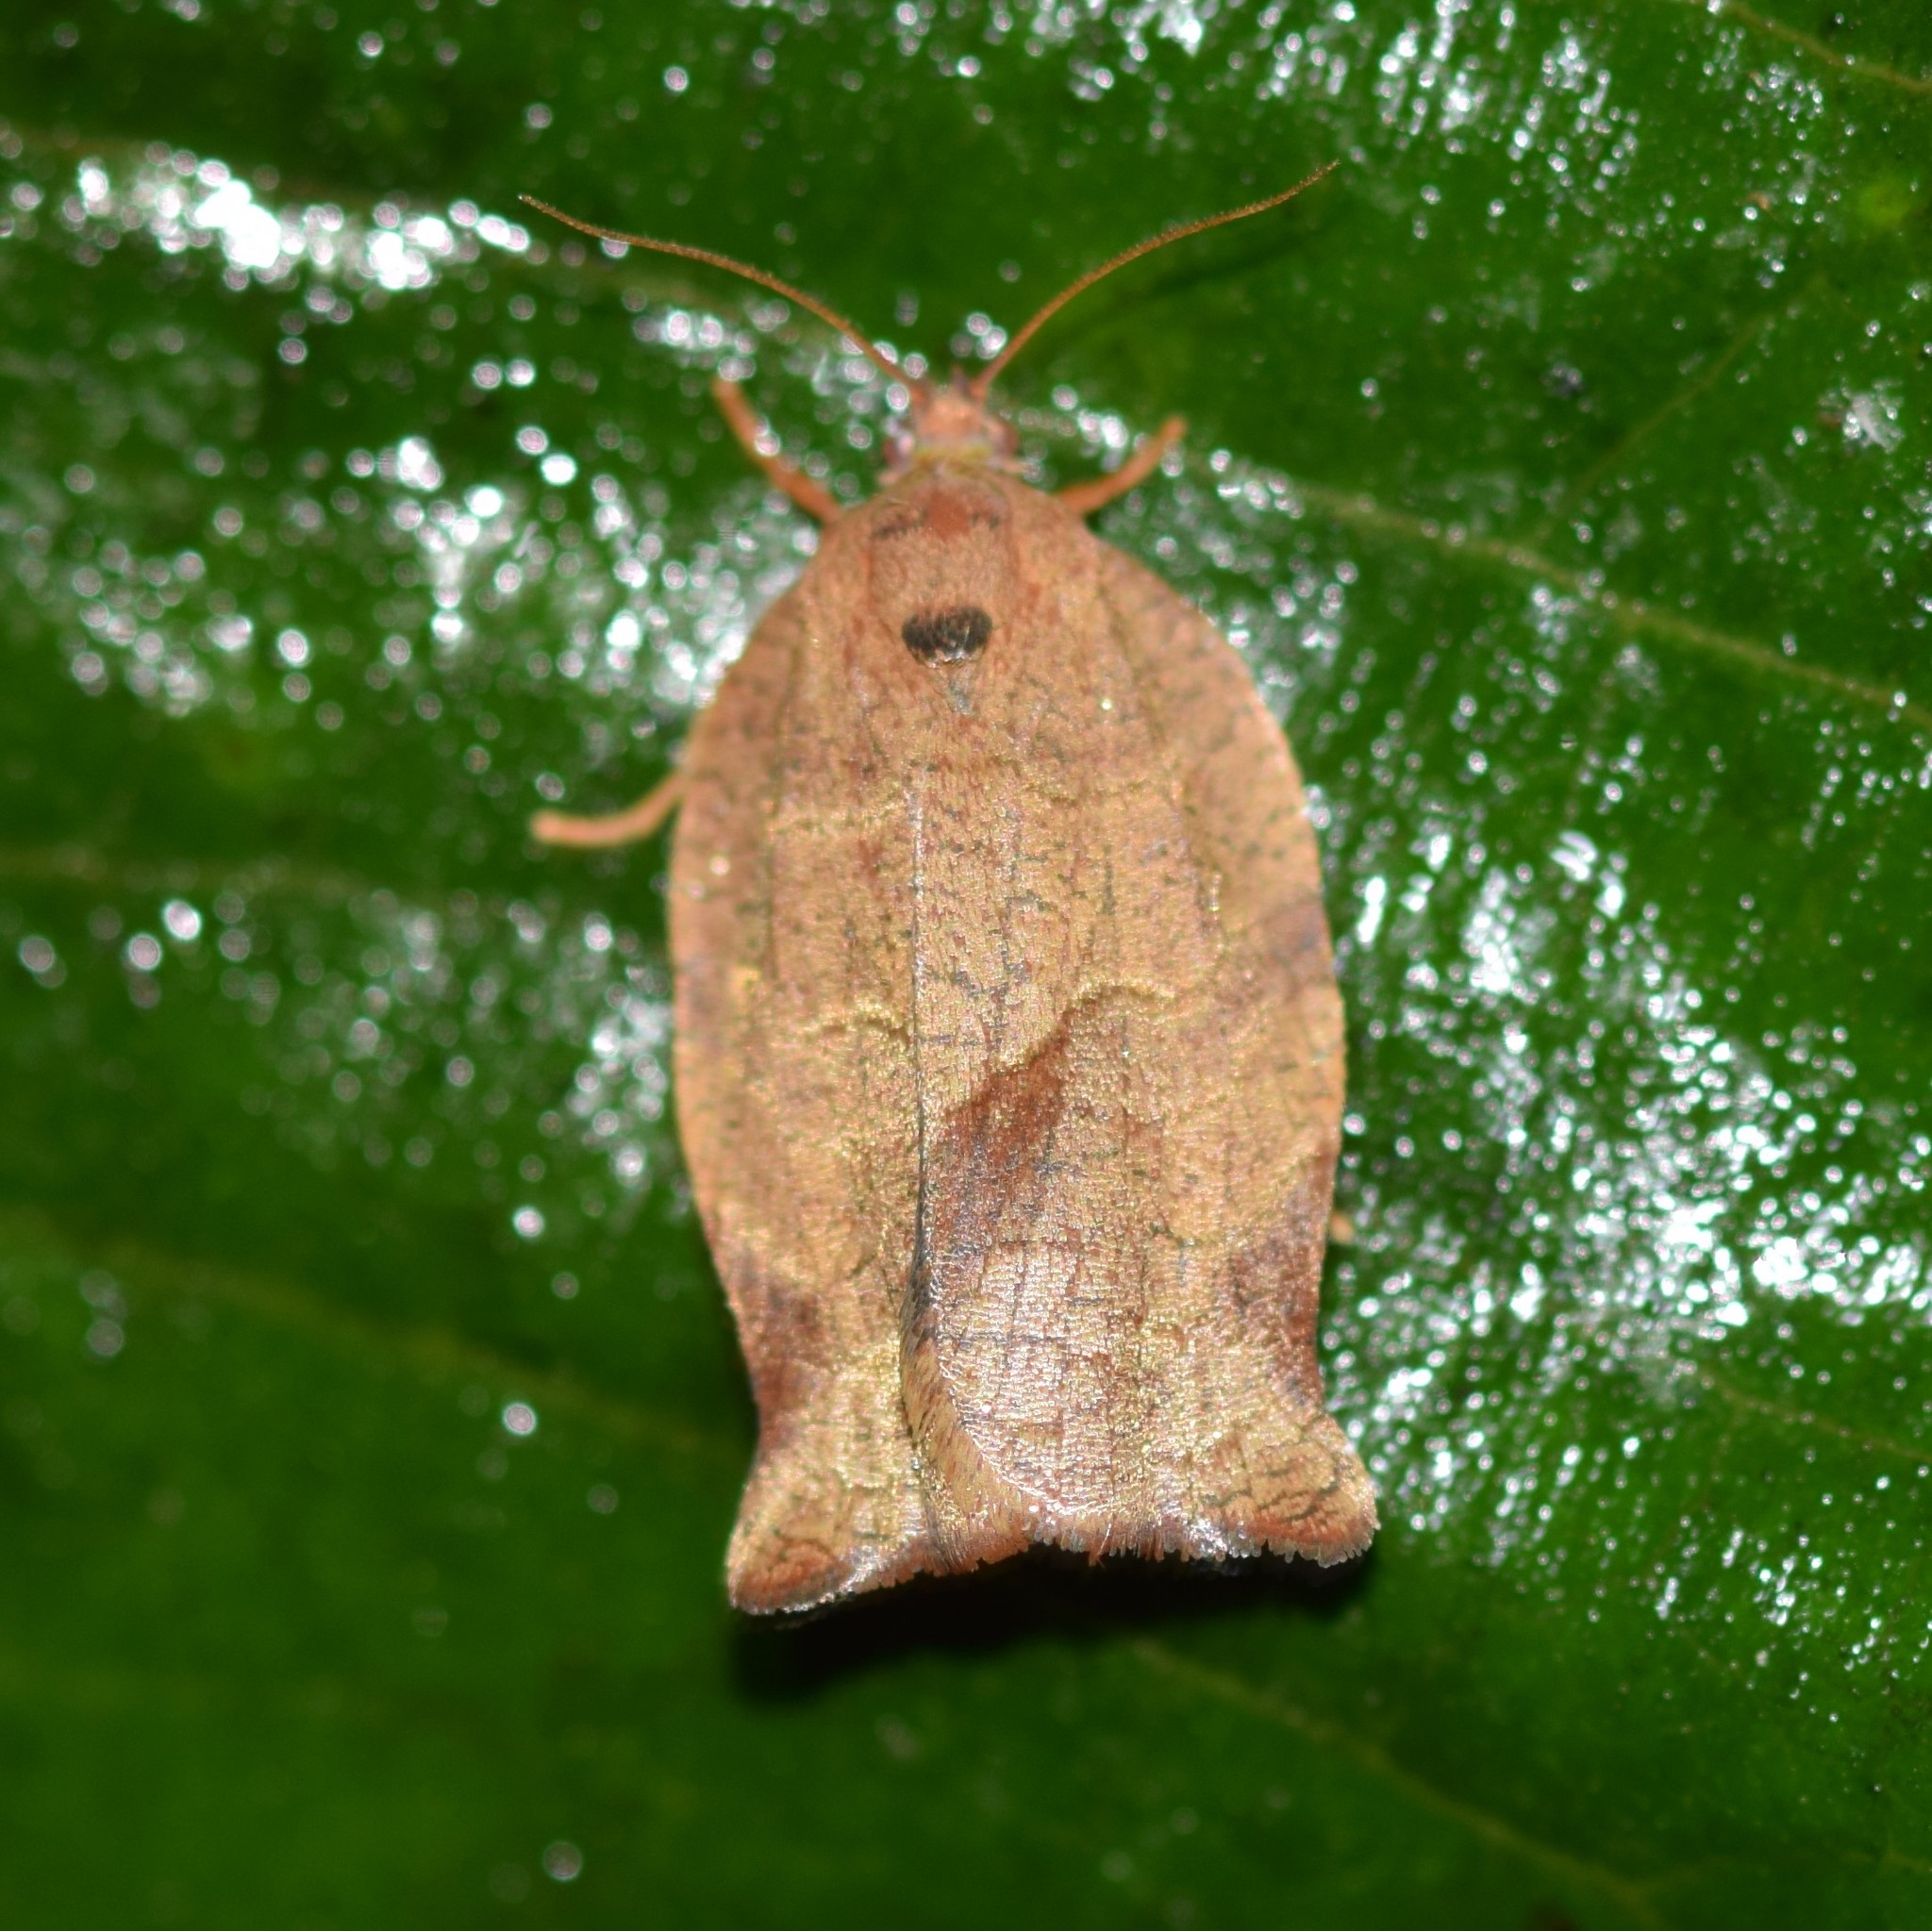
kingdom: Animalia
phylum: Arthropoda
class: Insecta
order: Lepidoptera
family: Tortricidae
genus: Choristoneura
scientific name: Choristoneura rosaceana
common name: Oblique-banded leafroller moth
